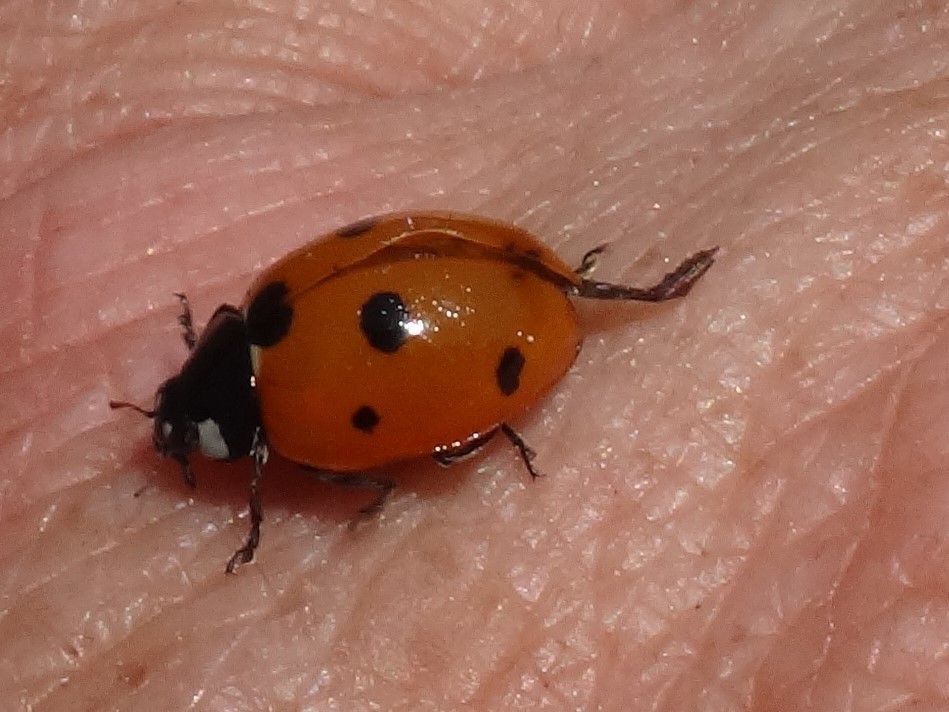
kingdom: Animalia
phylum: Arthropoda
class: Insecta
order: Coleoptera
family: Coccinellidae
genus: Coccinella
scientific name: Coccinella septempunctata
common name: Sevenspotted lady beetle
